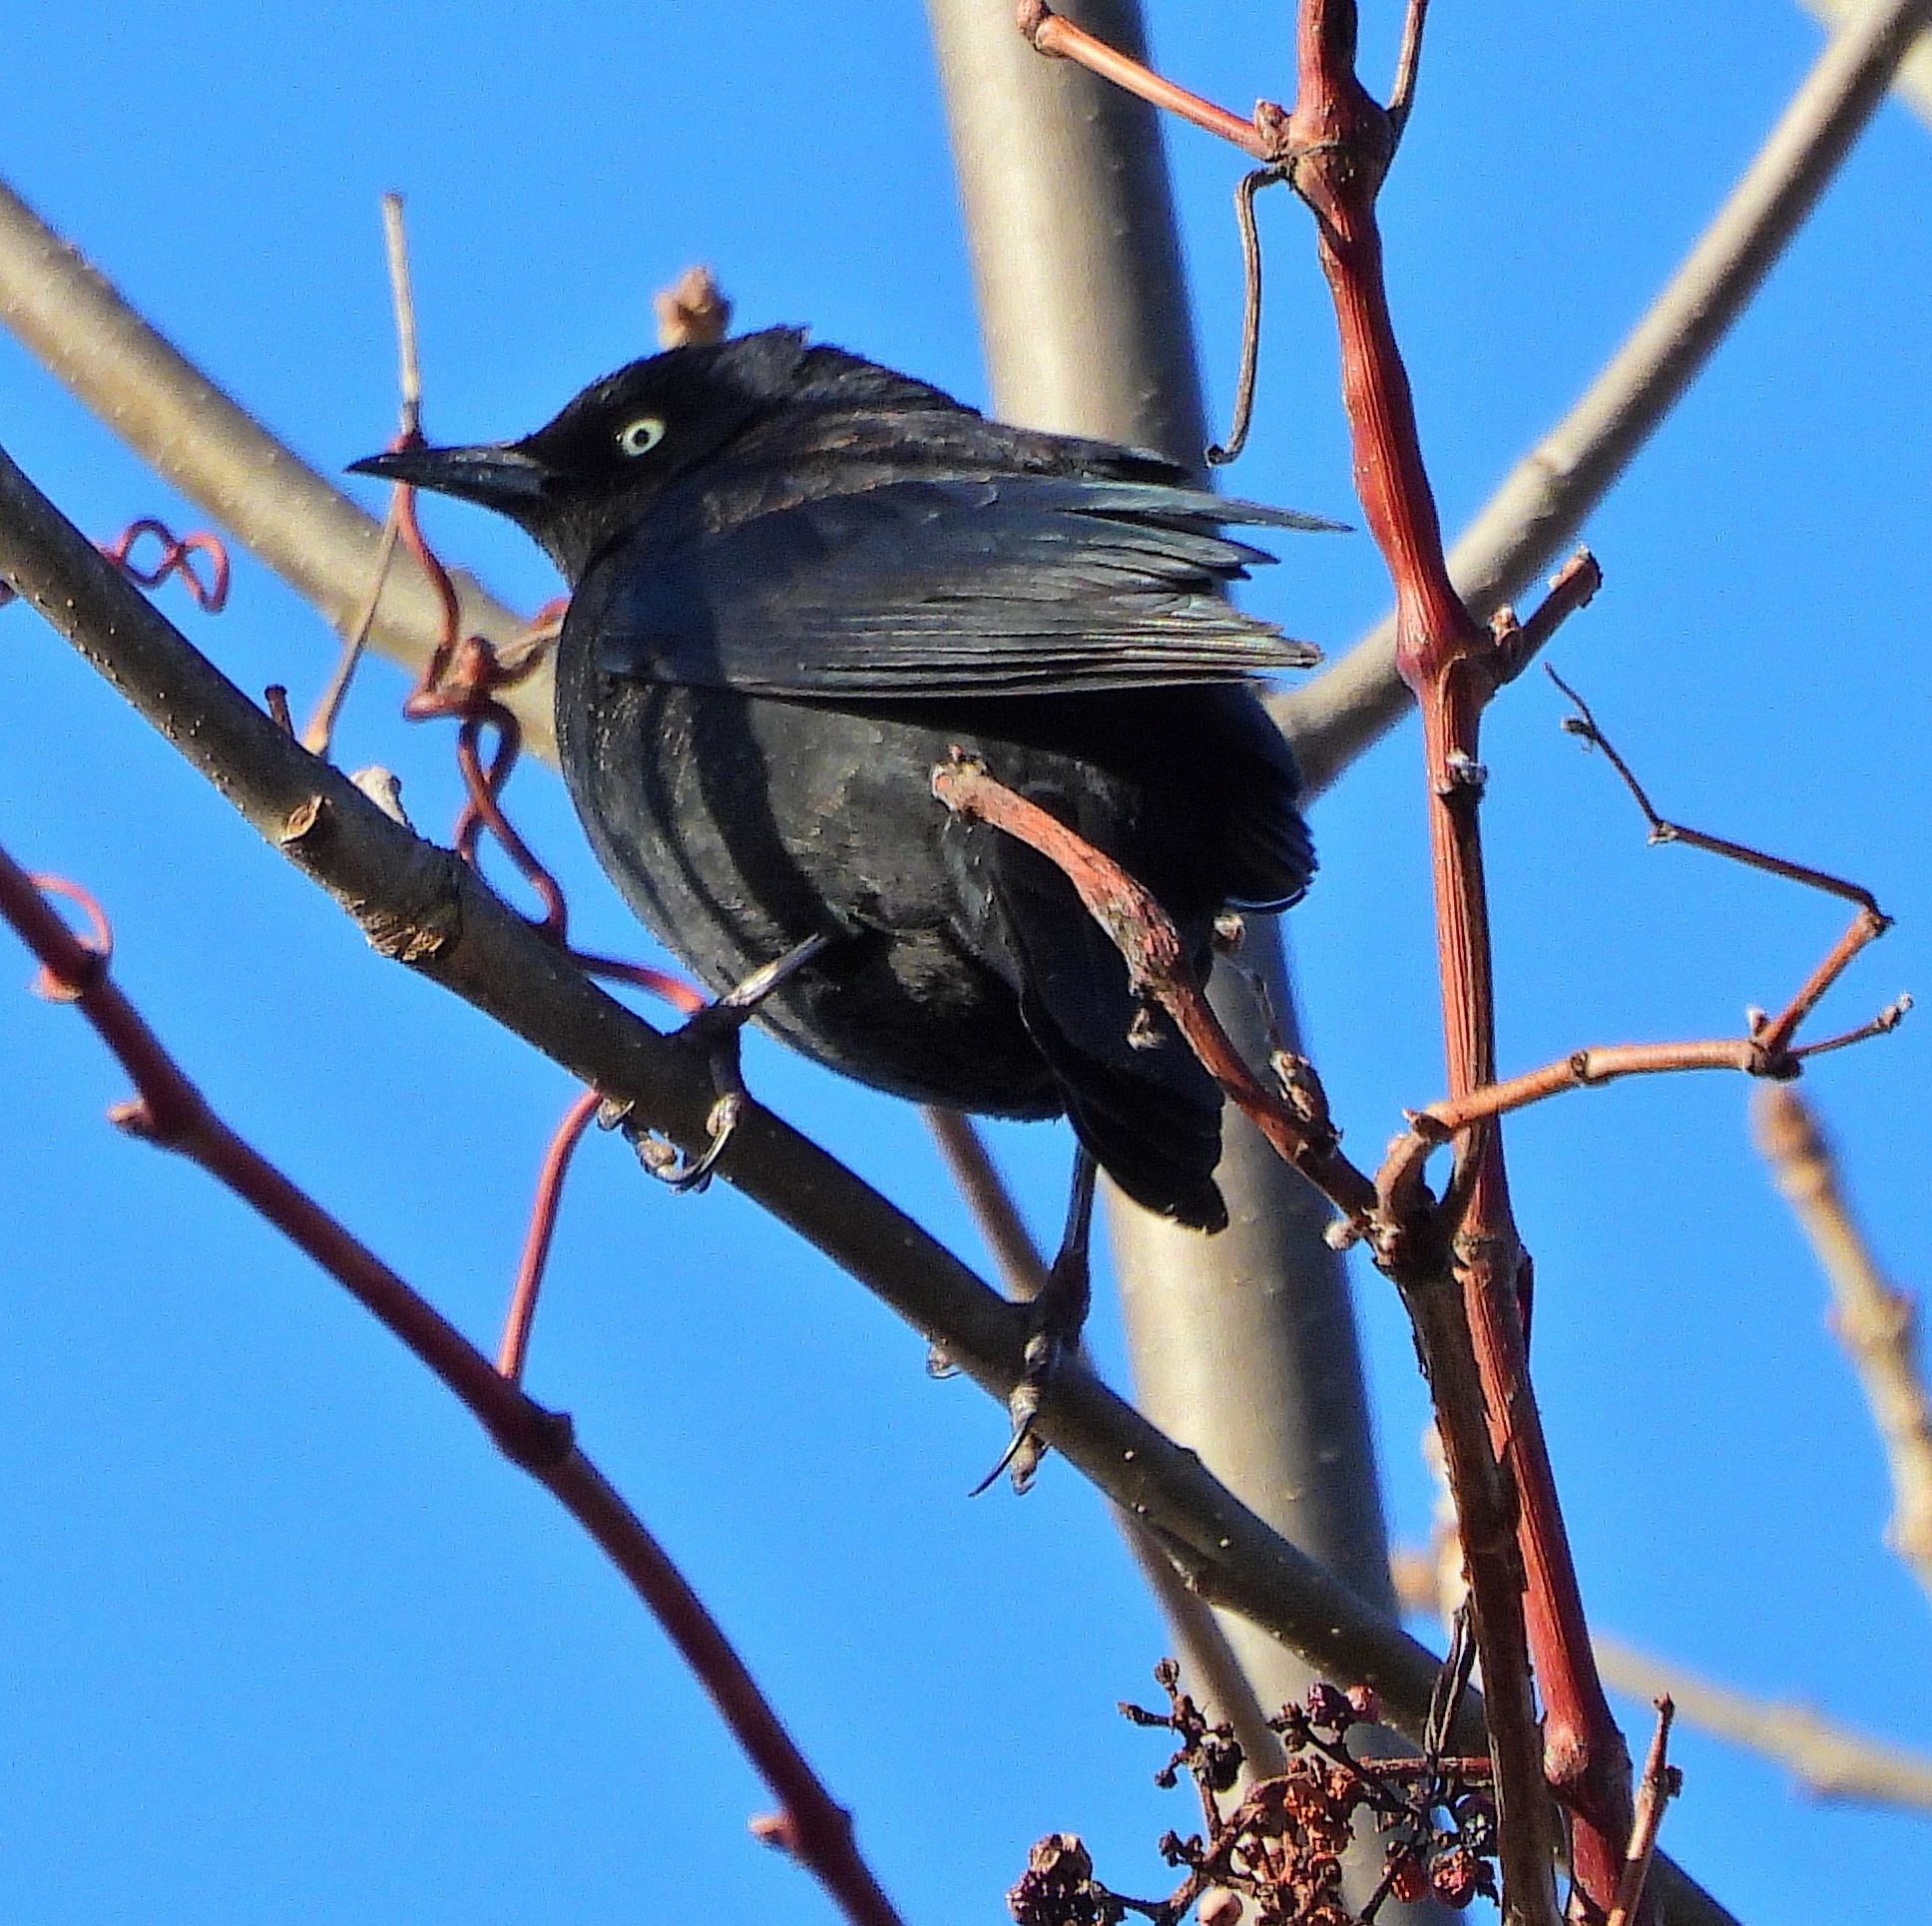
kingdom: Animalia
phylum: Chordata
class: Aves
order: Passeriformes
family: Icteridae
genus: Euphagus
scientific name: Euphagus carolinus
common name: Rusty blackbird
